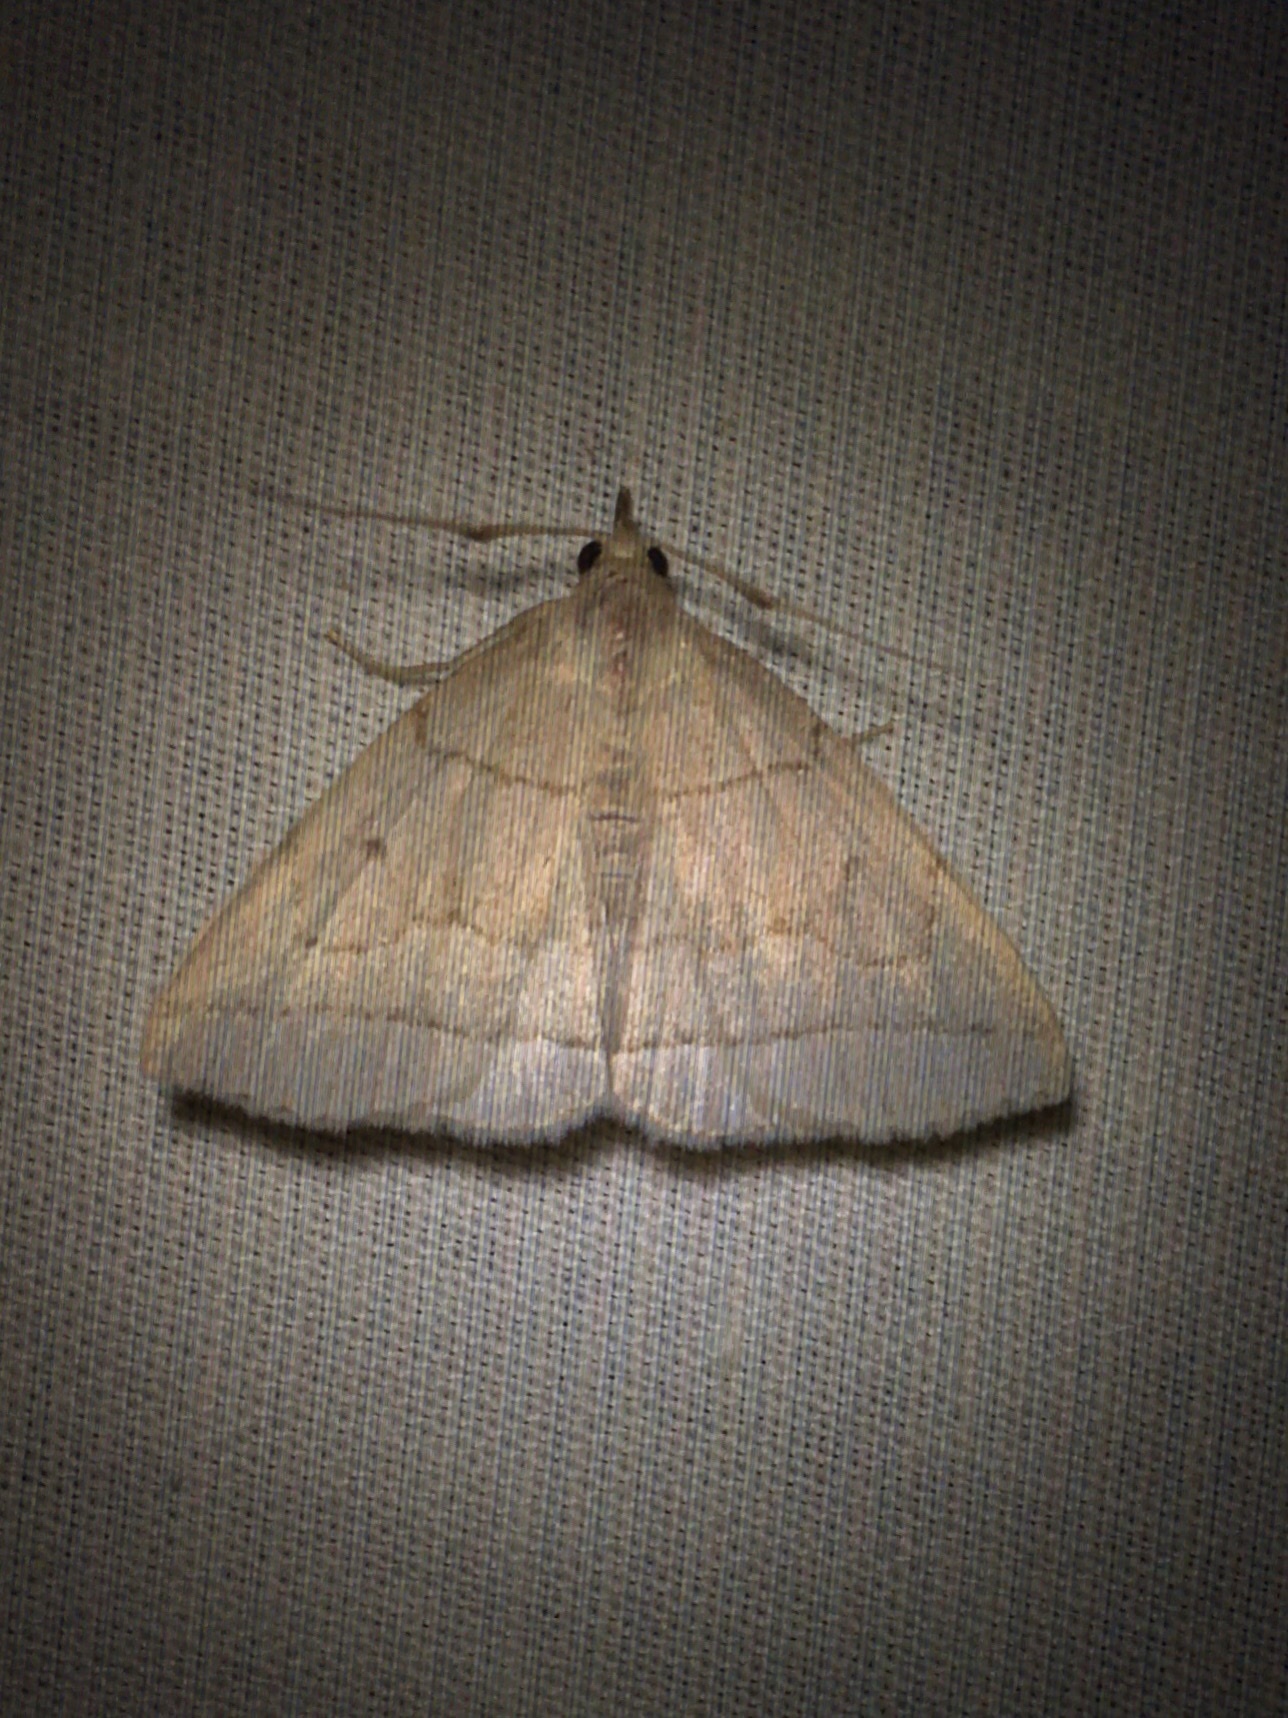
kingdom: Animalia
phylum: Arthropoda
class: Insecta
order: Lepidoptera
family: Erebidae
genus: Zanclognatha
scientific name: Zanclognatha cruralis
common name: Early fan-foot
